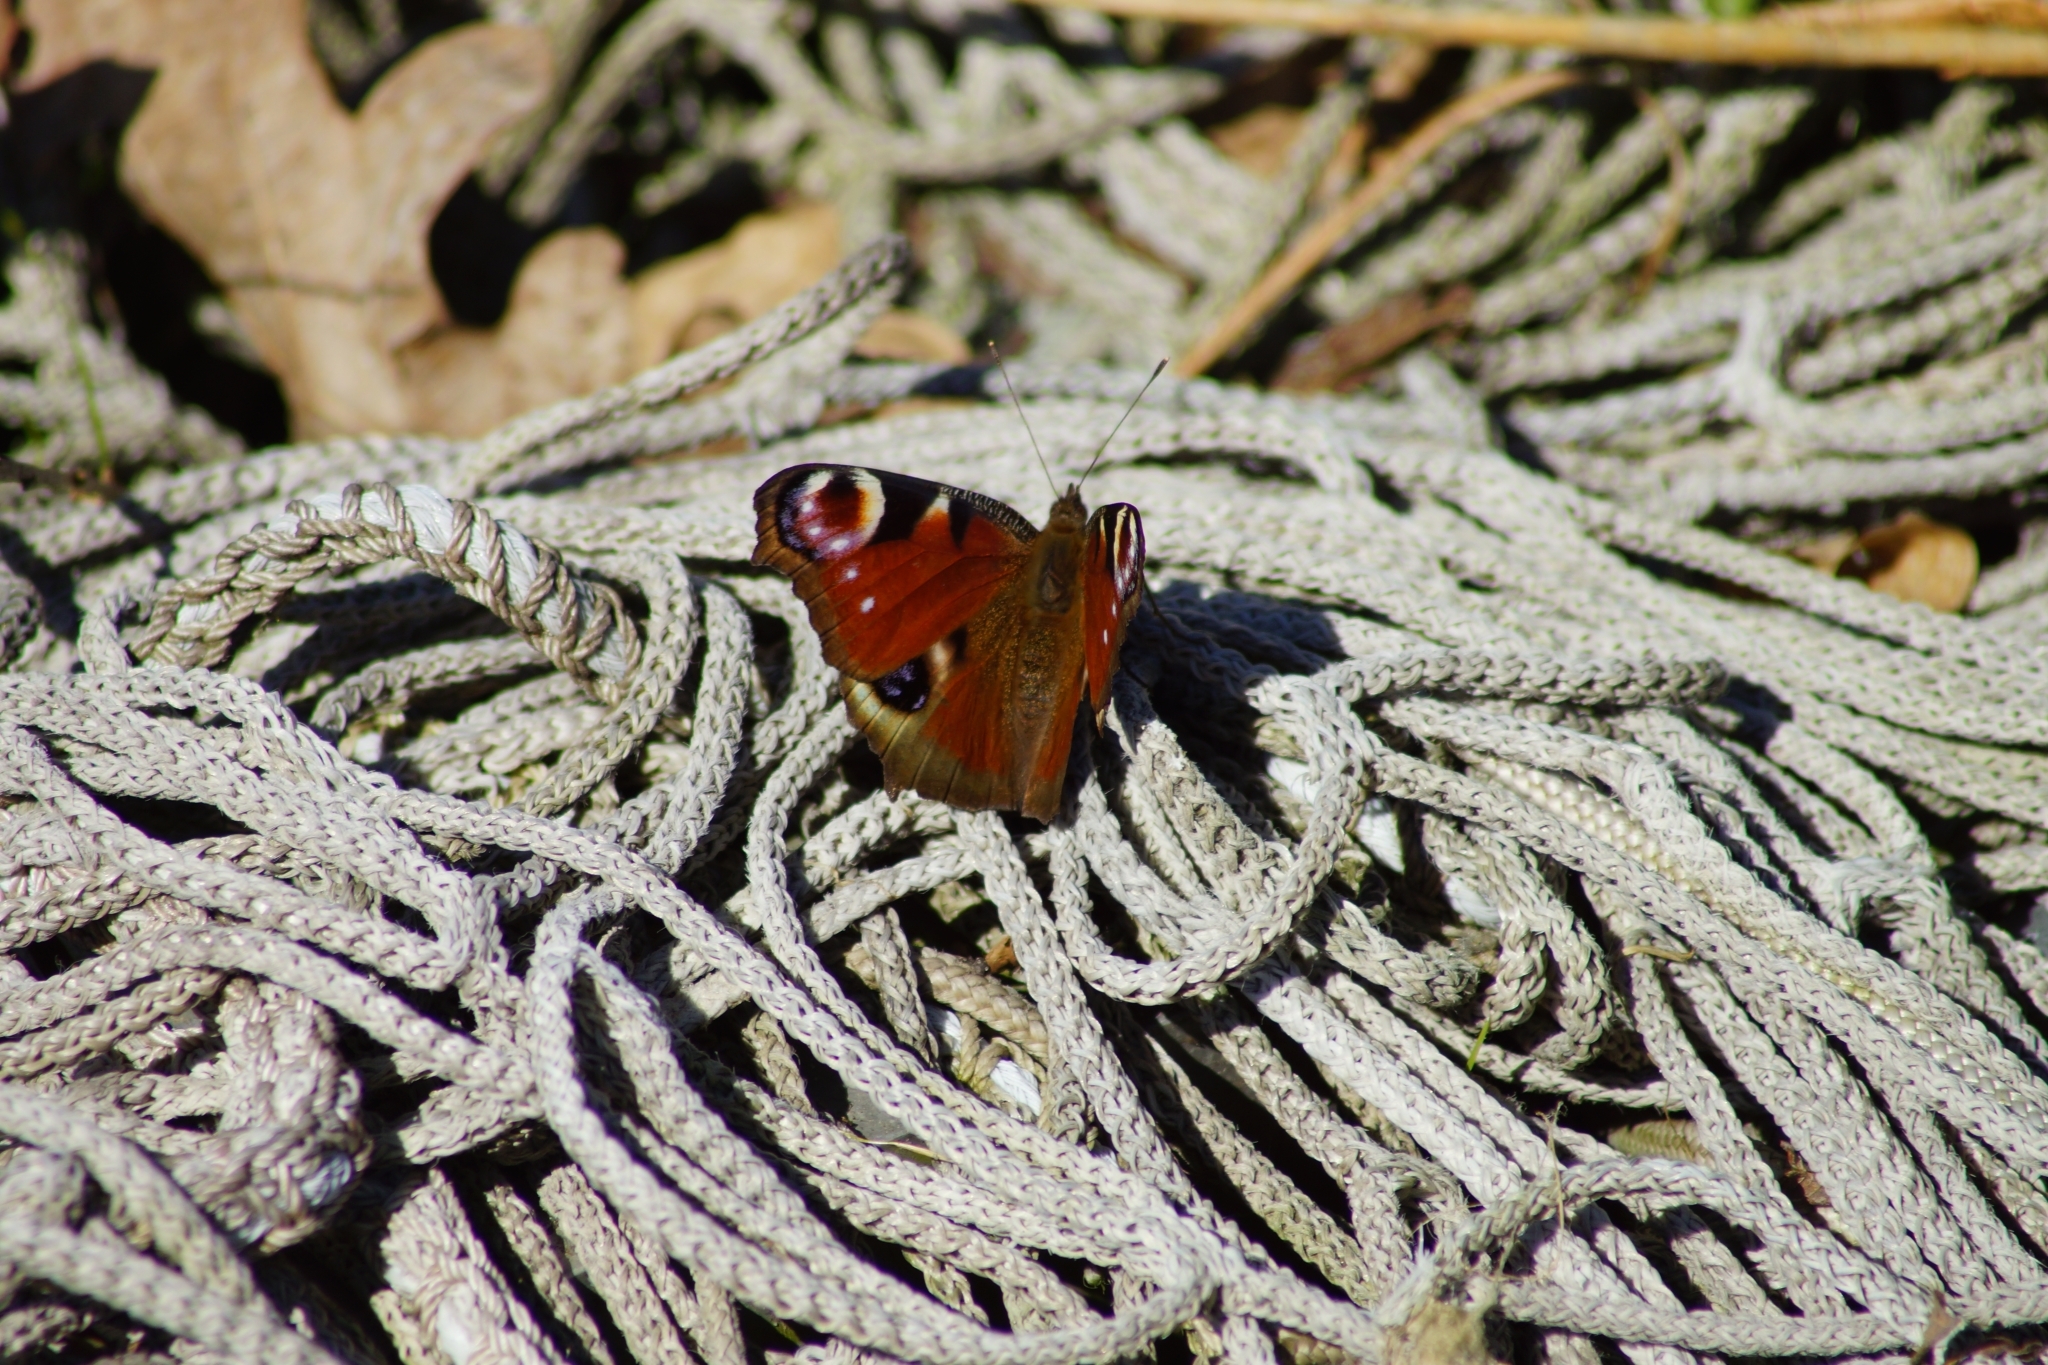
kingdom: Animalia
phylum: Arthropoda
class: Insecta
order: Lepidoptera
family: Nymphalidae
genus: Aglais
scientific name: Aglais io
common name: Peacock
